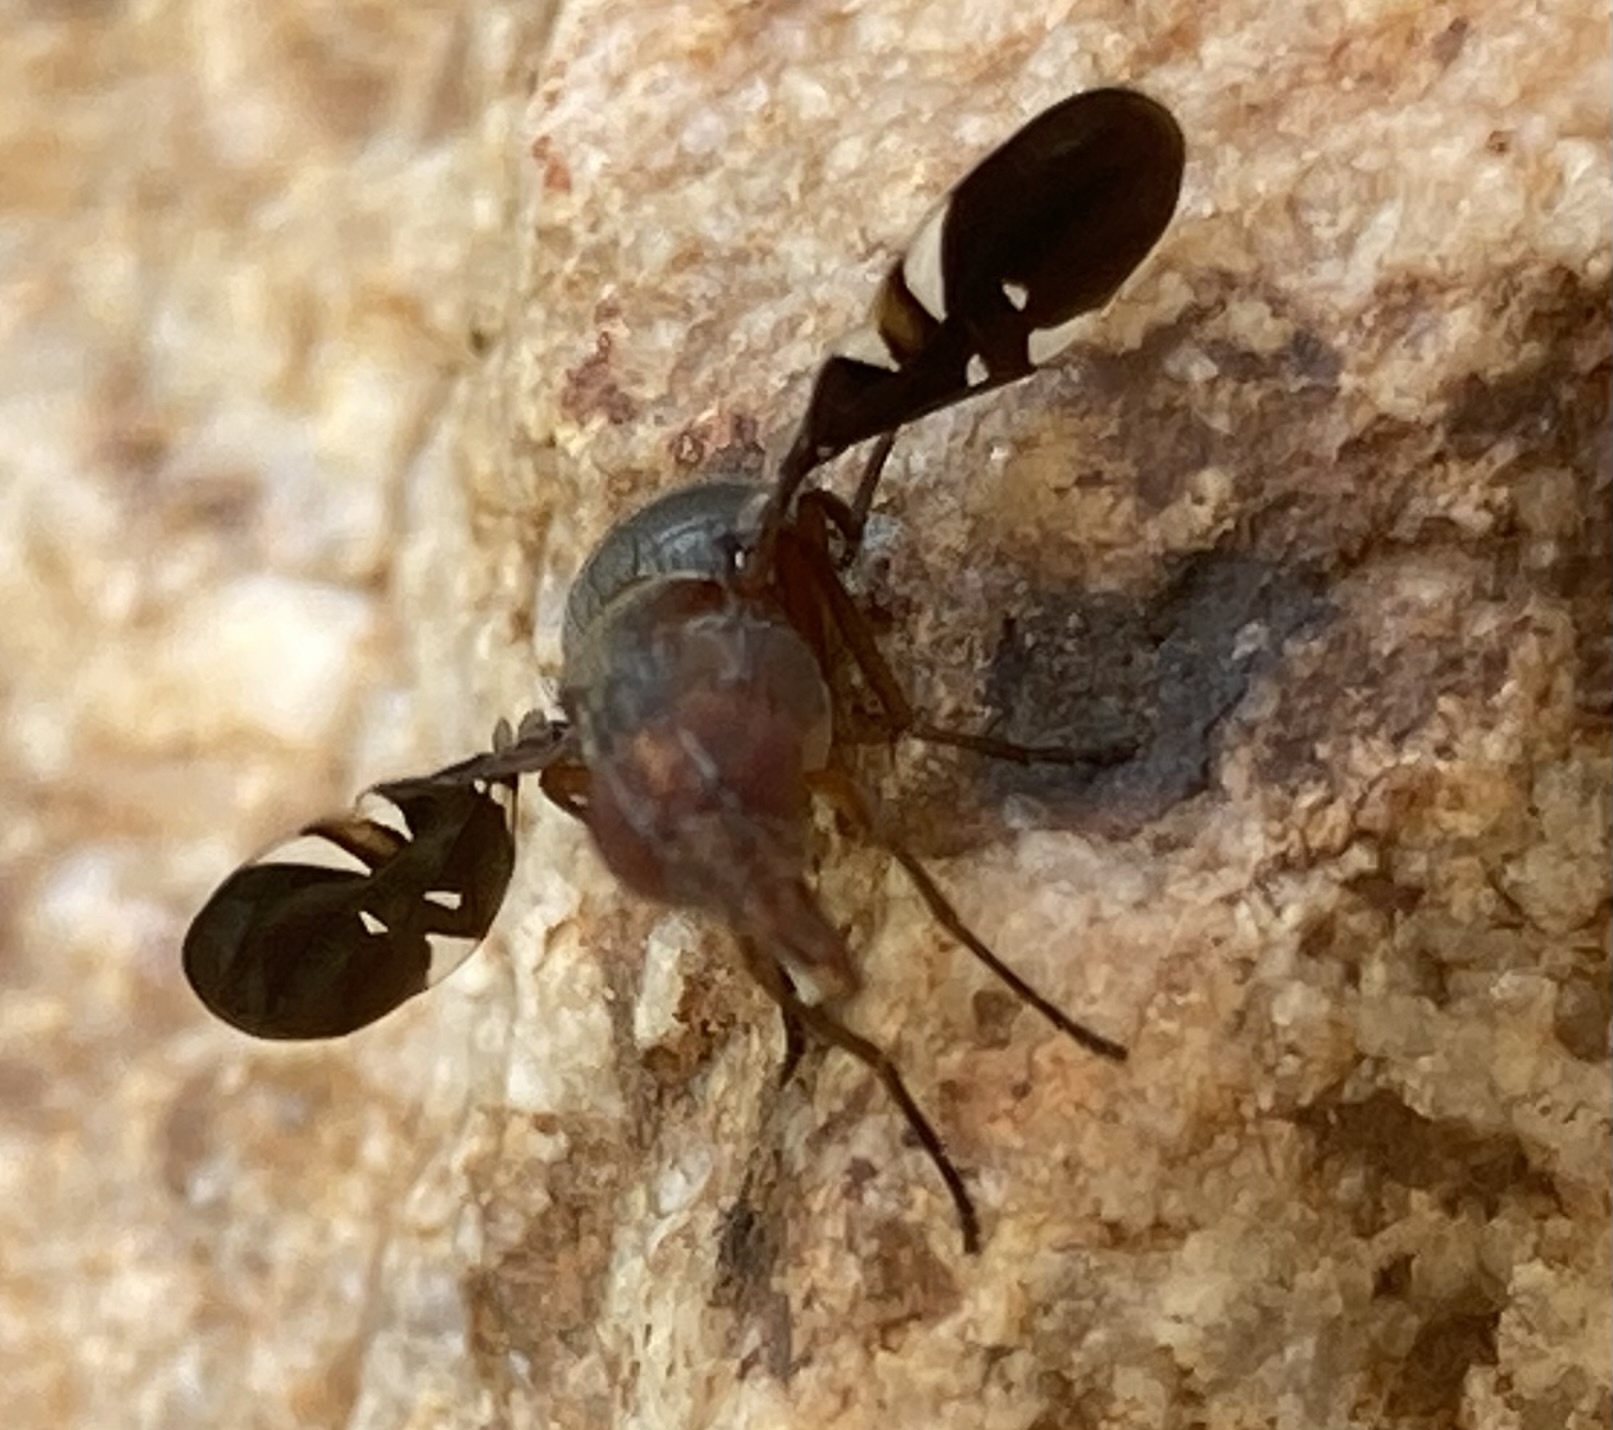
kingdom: Animalia
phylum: Arthropoda
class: Insecta
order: Diptera
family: Ulidiidae
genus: Delphinia
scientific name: Delphinia picta
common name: Common picture-winged fly
